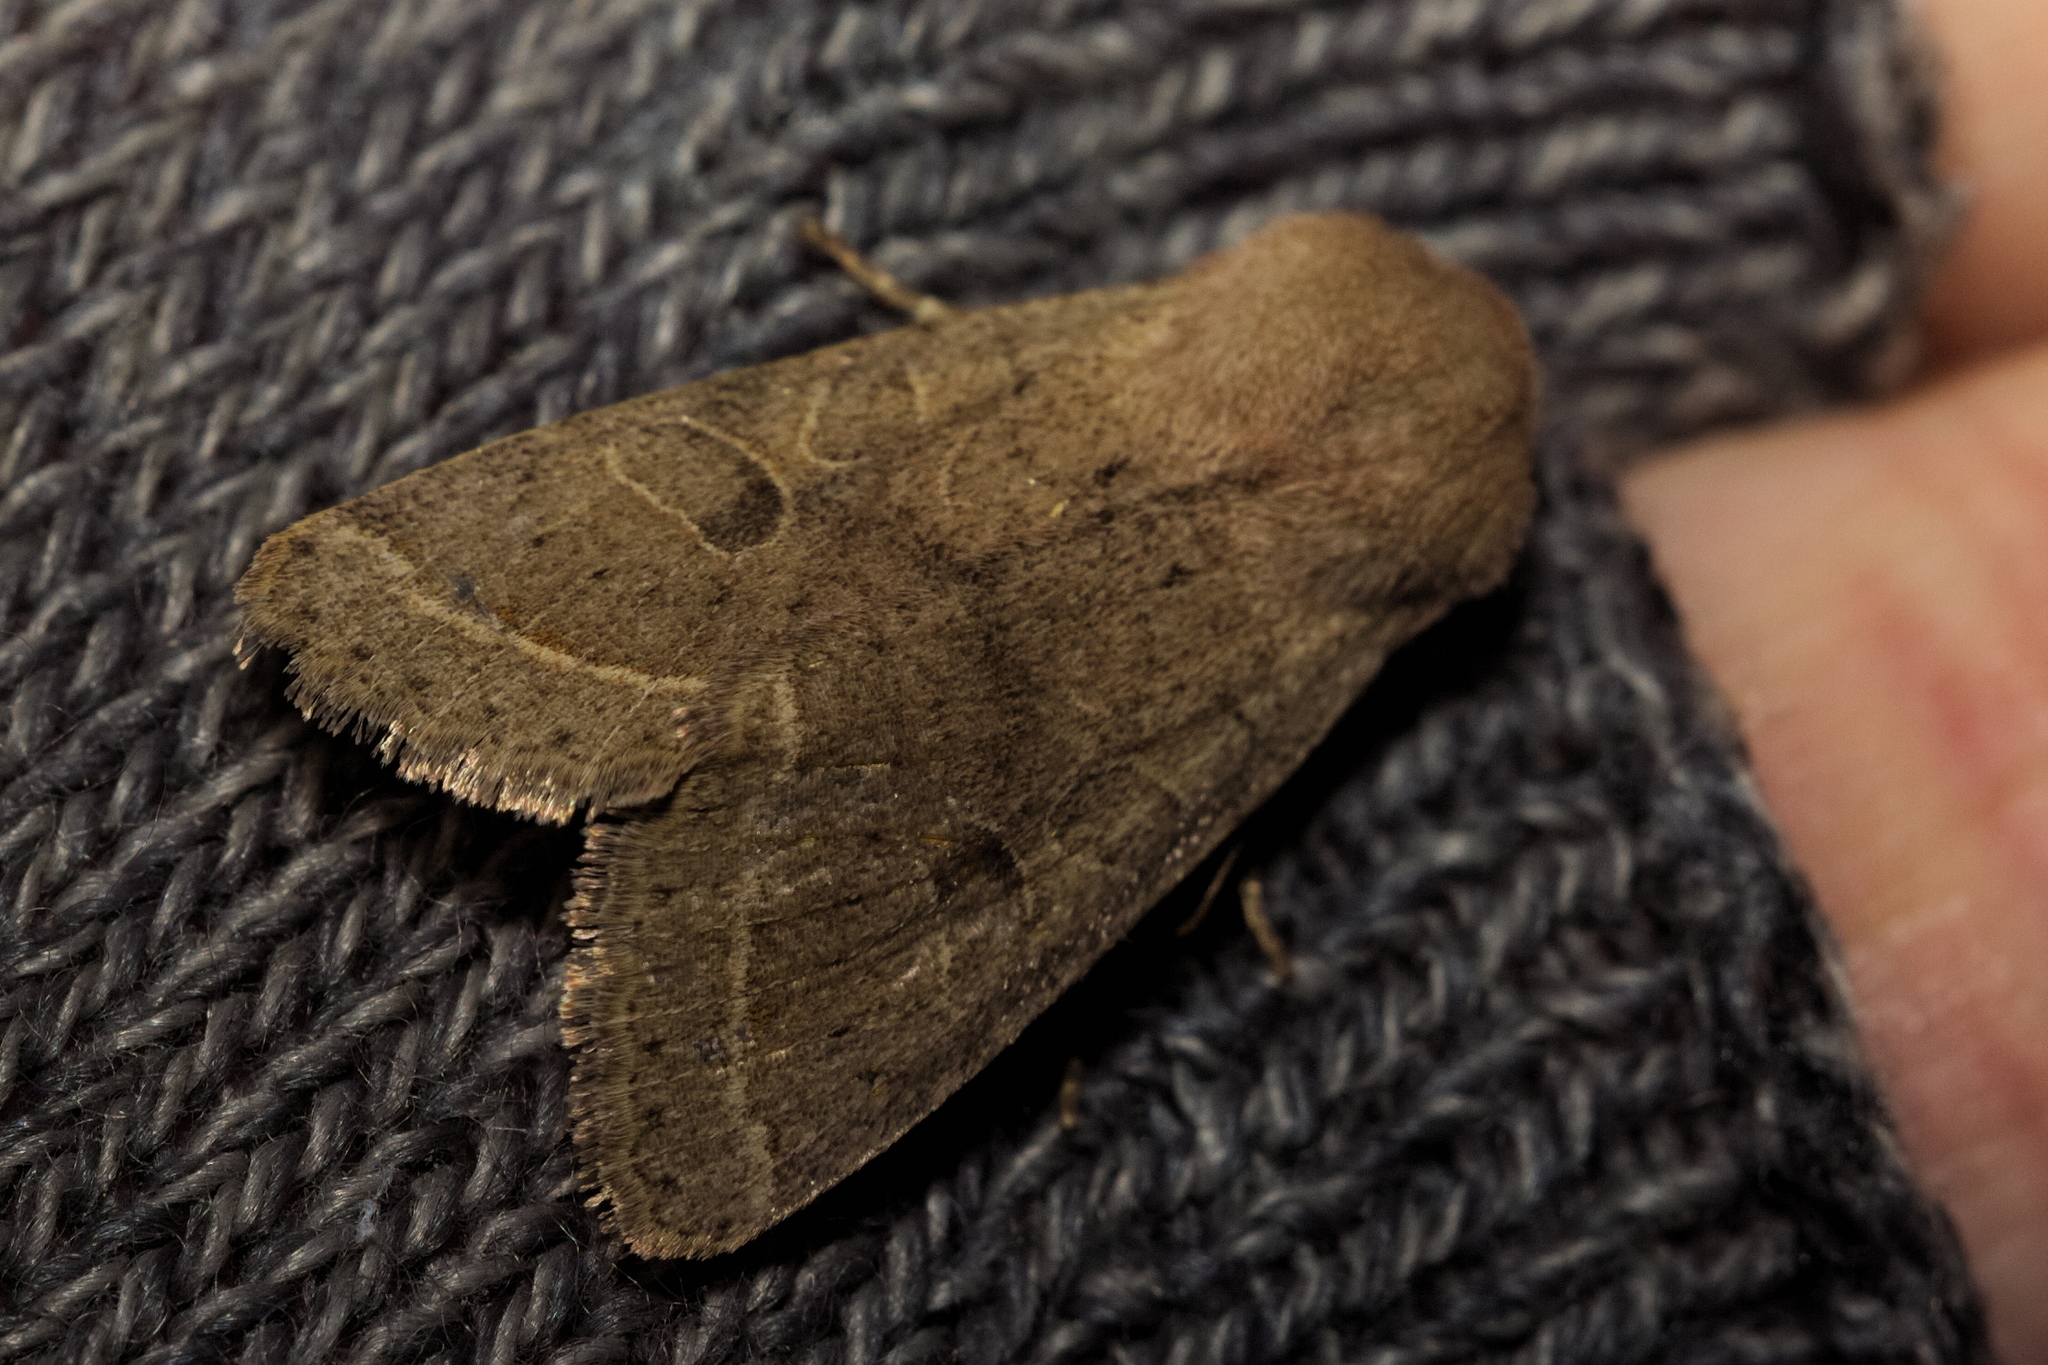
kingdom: Animalia
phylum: Arthropoda
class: Insecta
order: Lepidoptera
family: Noctuidae
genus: Orthosia
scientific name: Orthosia cerasi
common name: Common quaker
